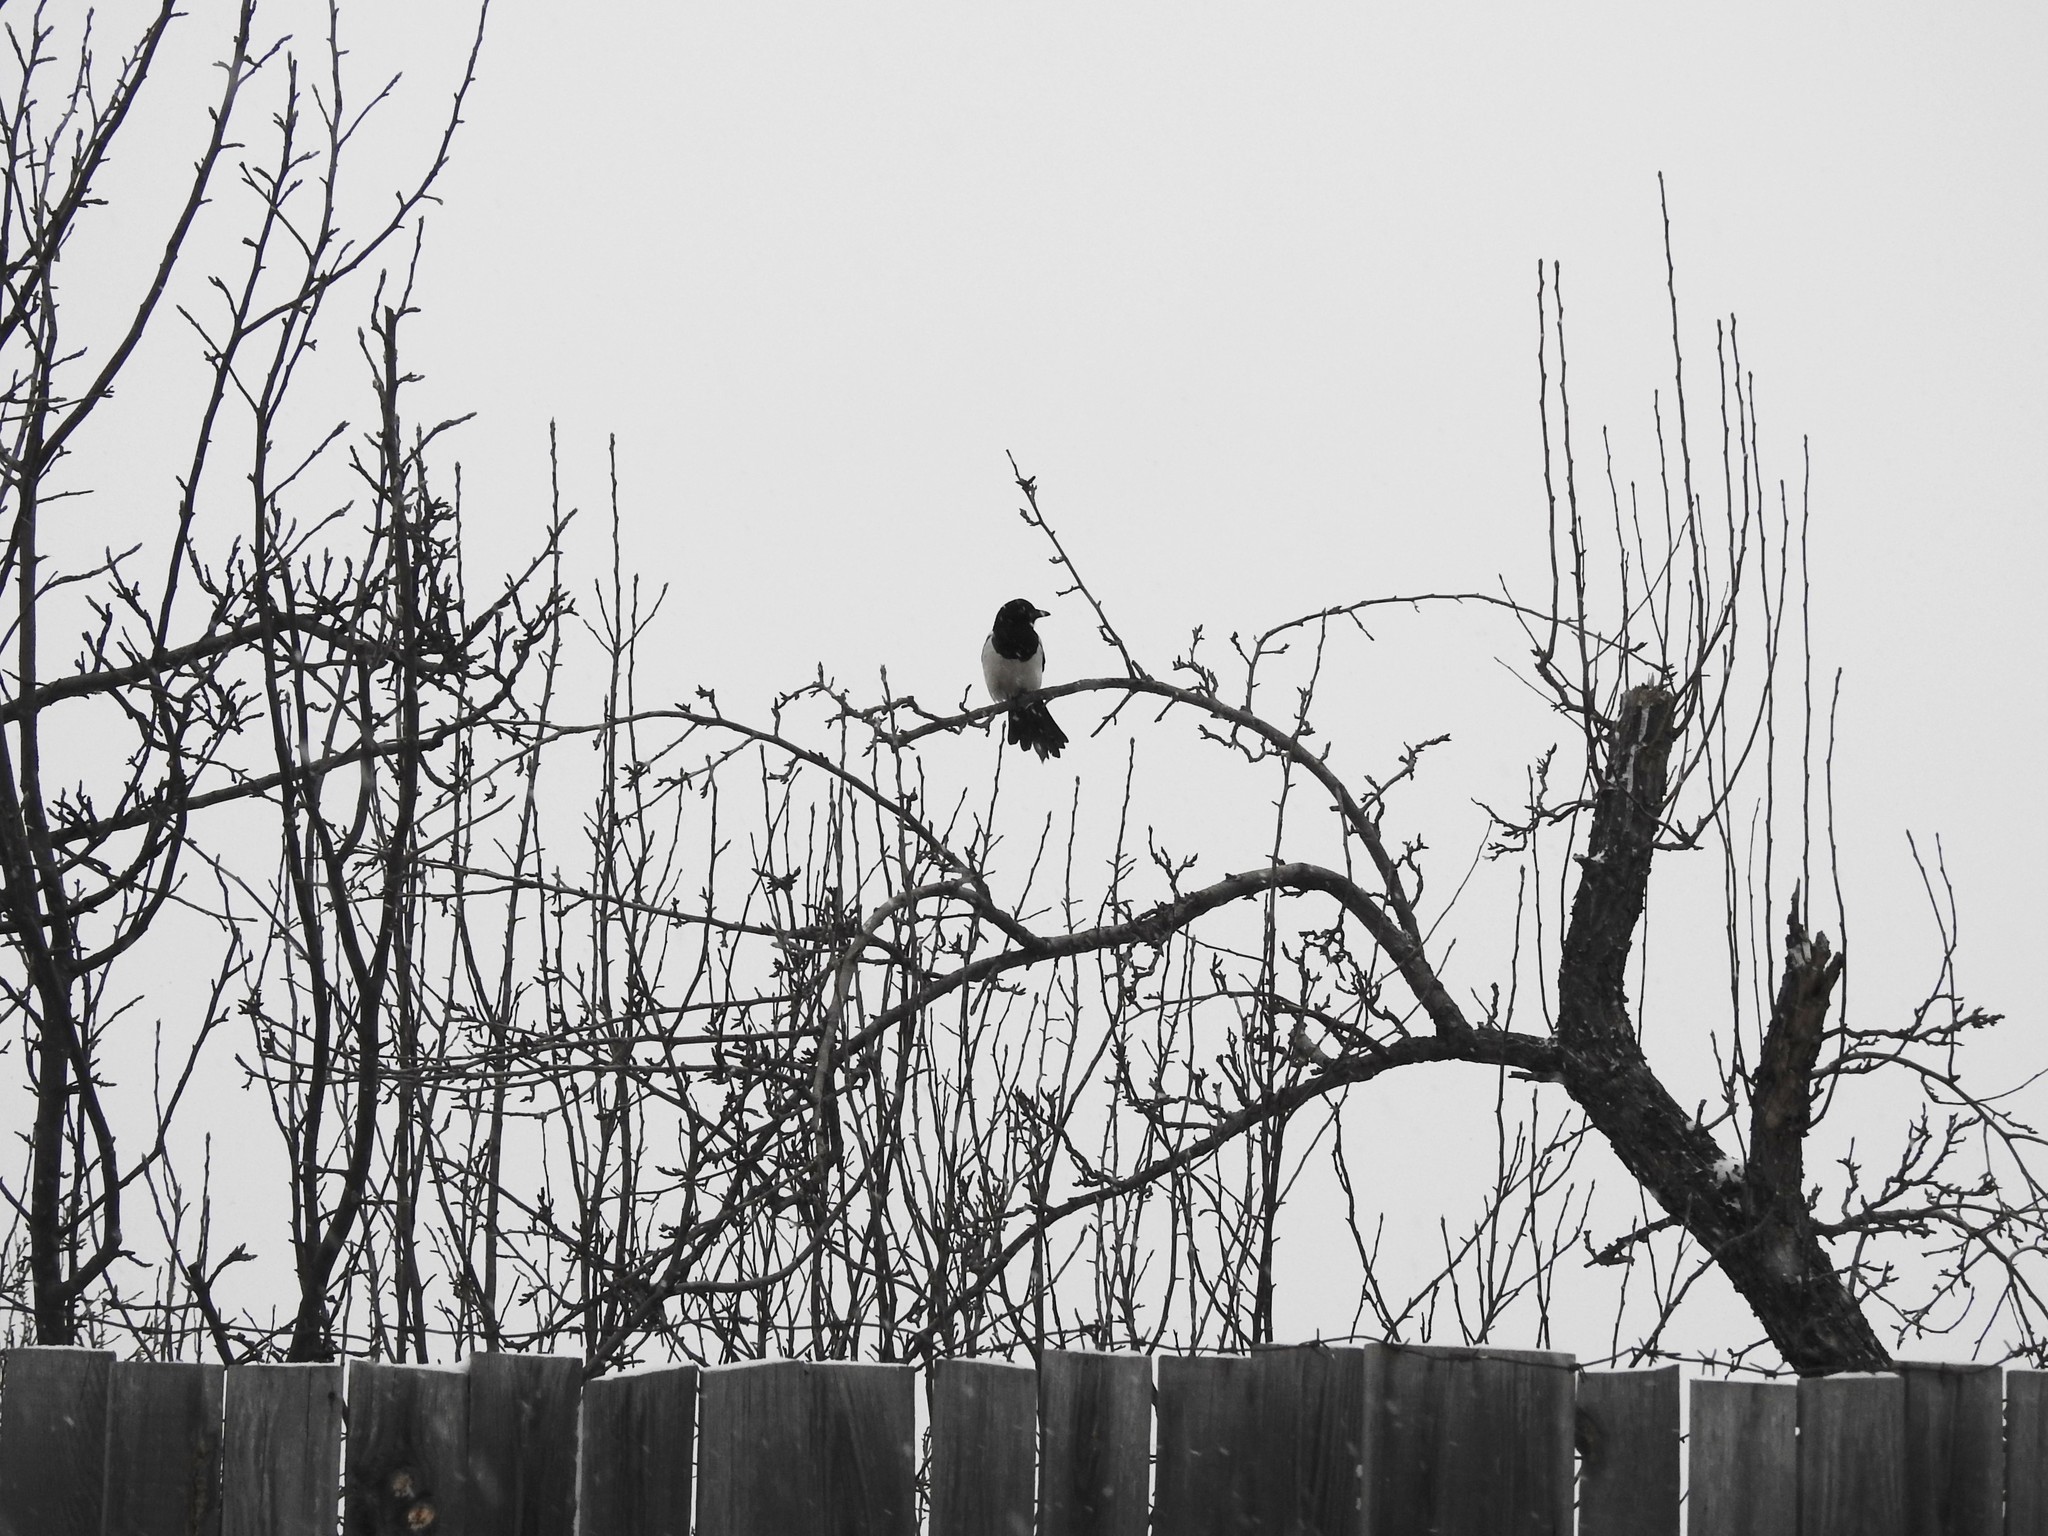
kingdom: Animalia
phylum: Chordata
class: Aves
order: Passeriformes
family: Corvidae
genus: Pica
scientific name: Pica pica
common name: Eurasian magpie
